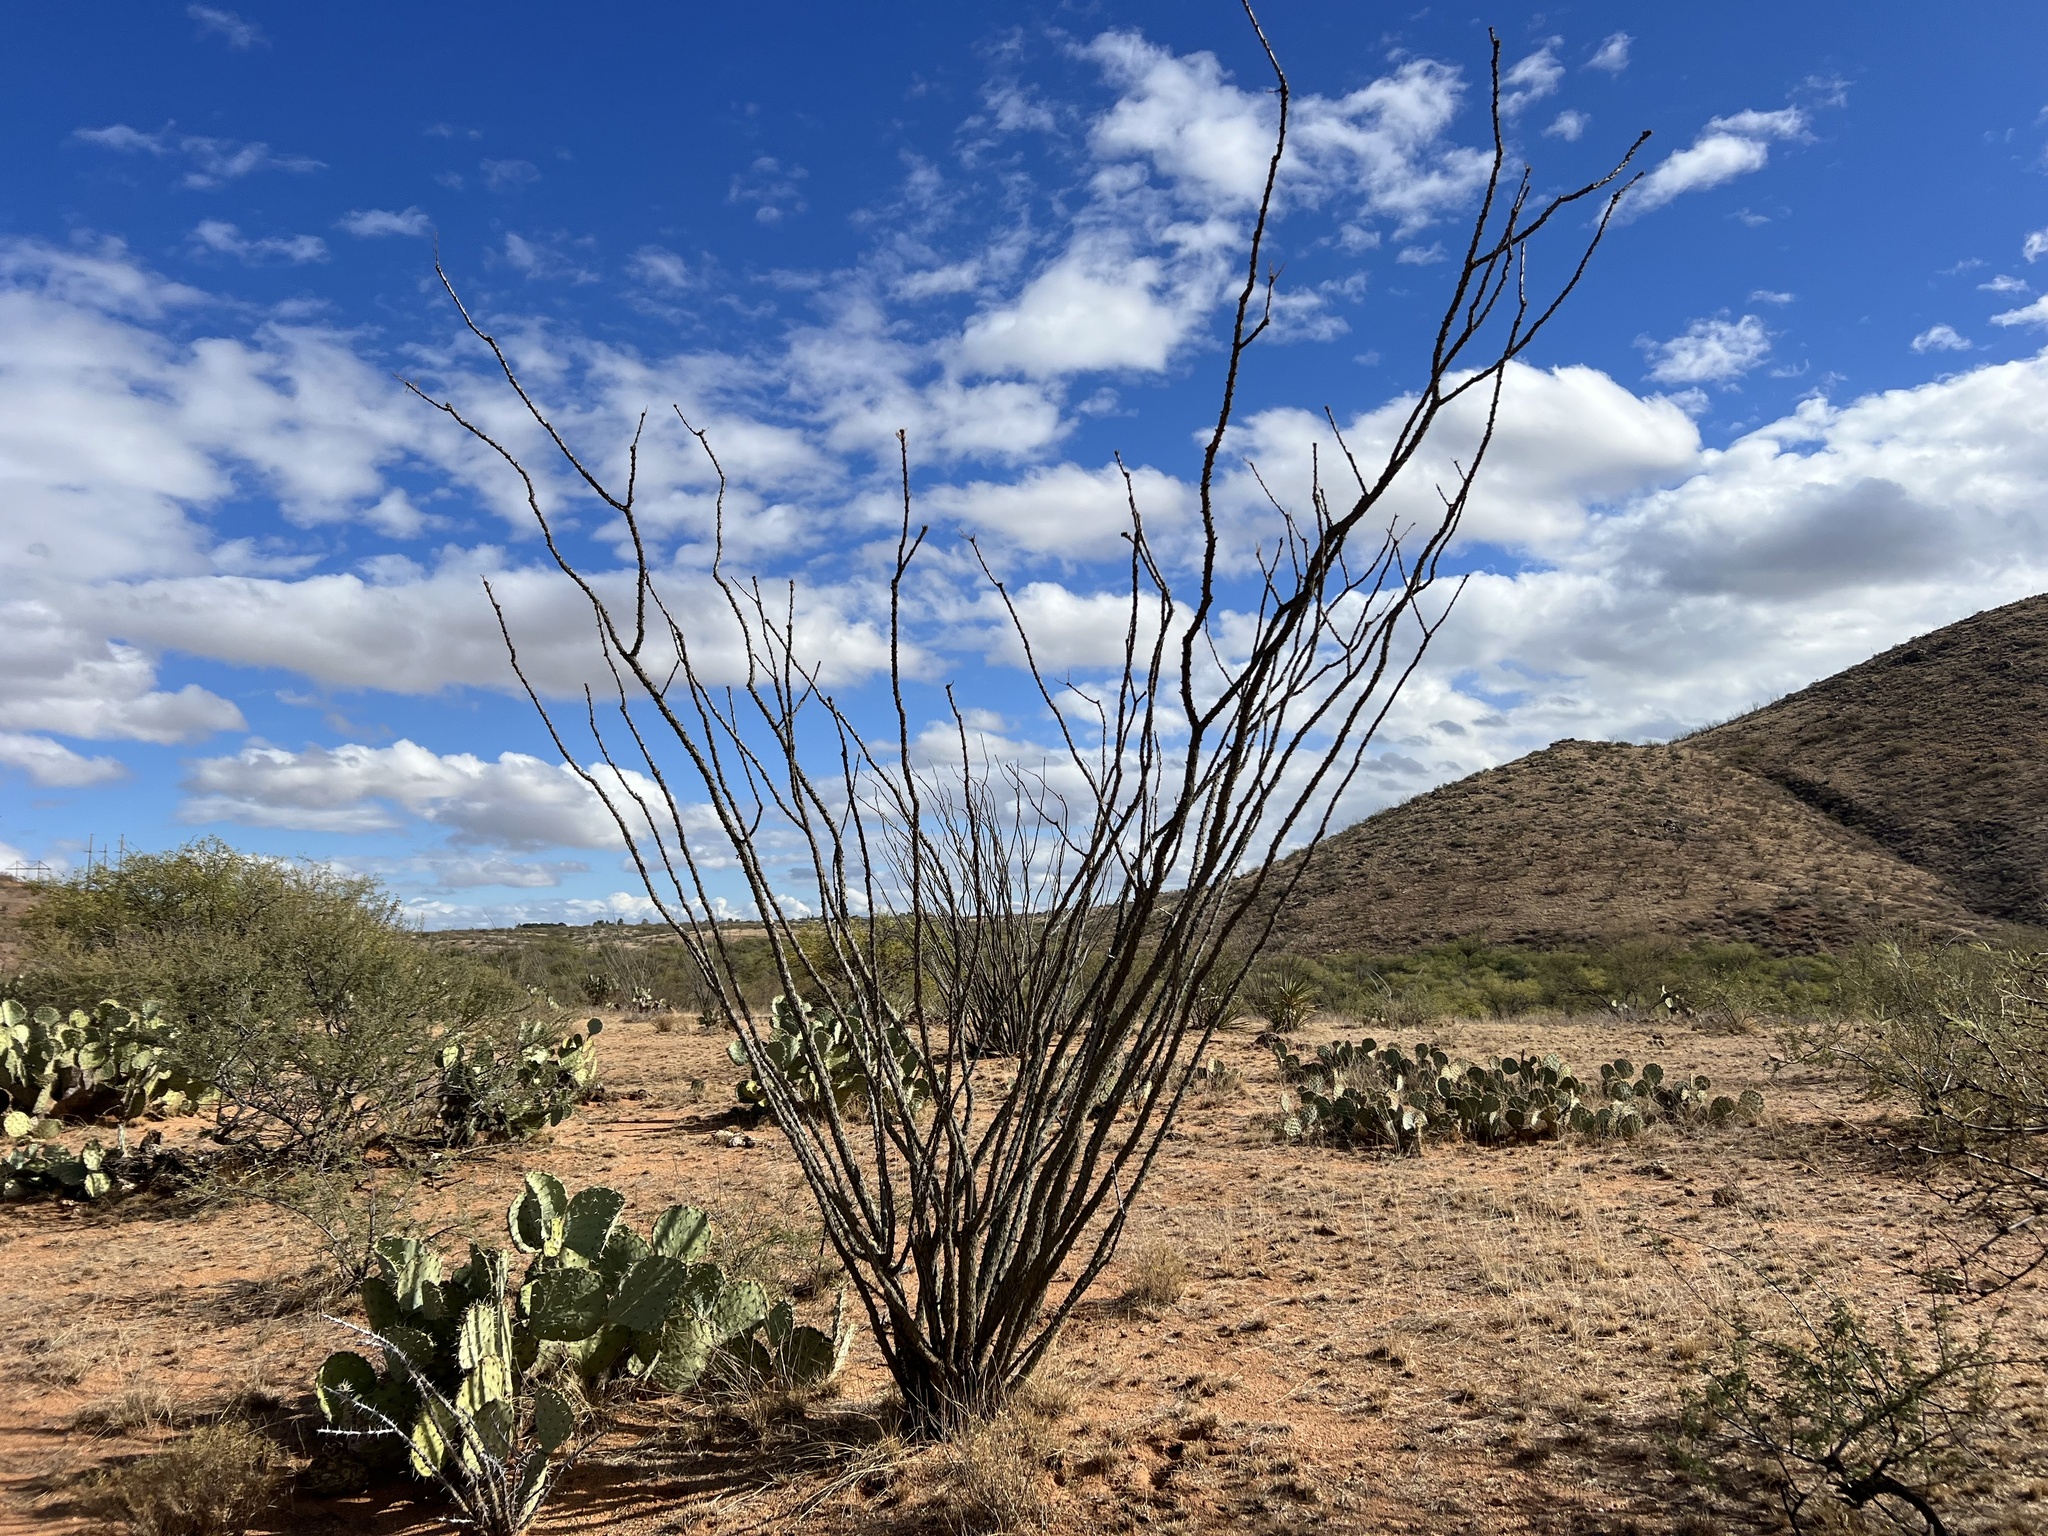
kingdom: Plantae
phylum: Tracheophyta
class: Magnoliopsida
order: Ericales
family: Fouquieriaceae
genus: Fouquieria
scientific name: Fouquieria splendens
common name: Vine-cactus
